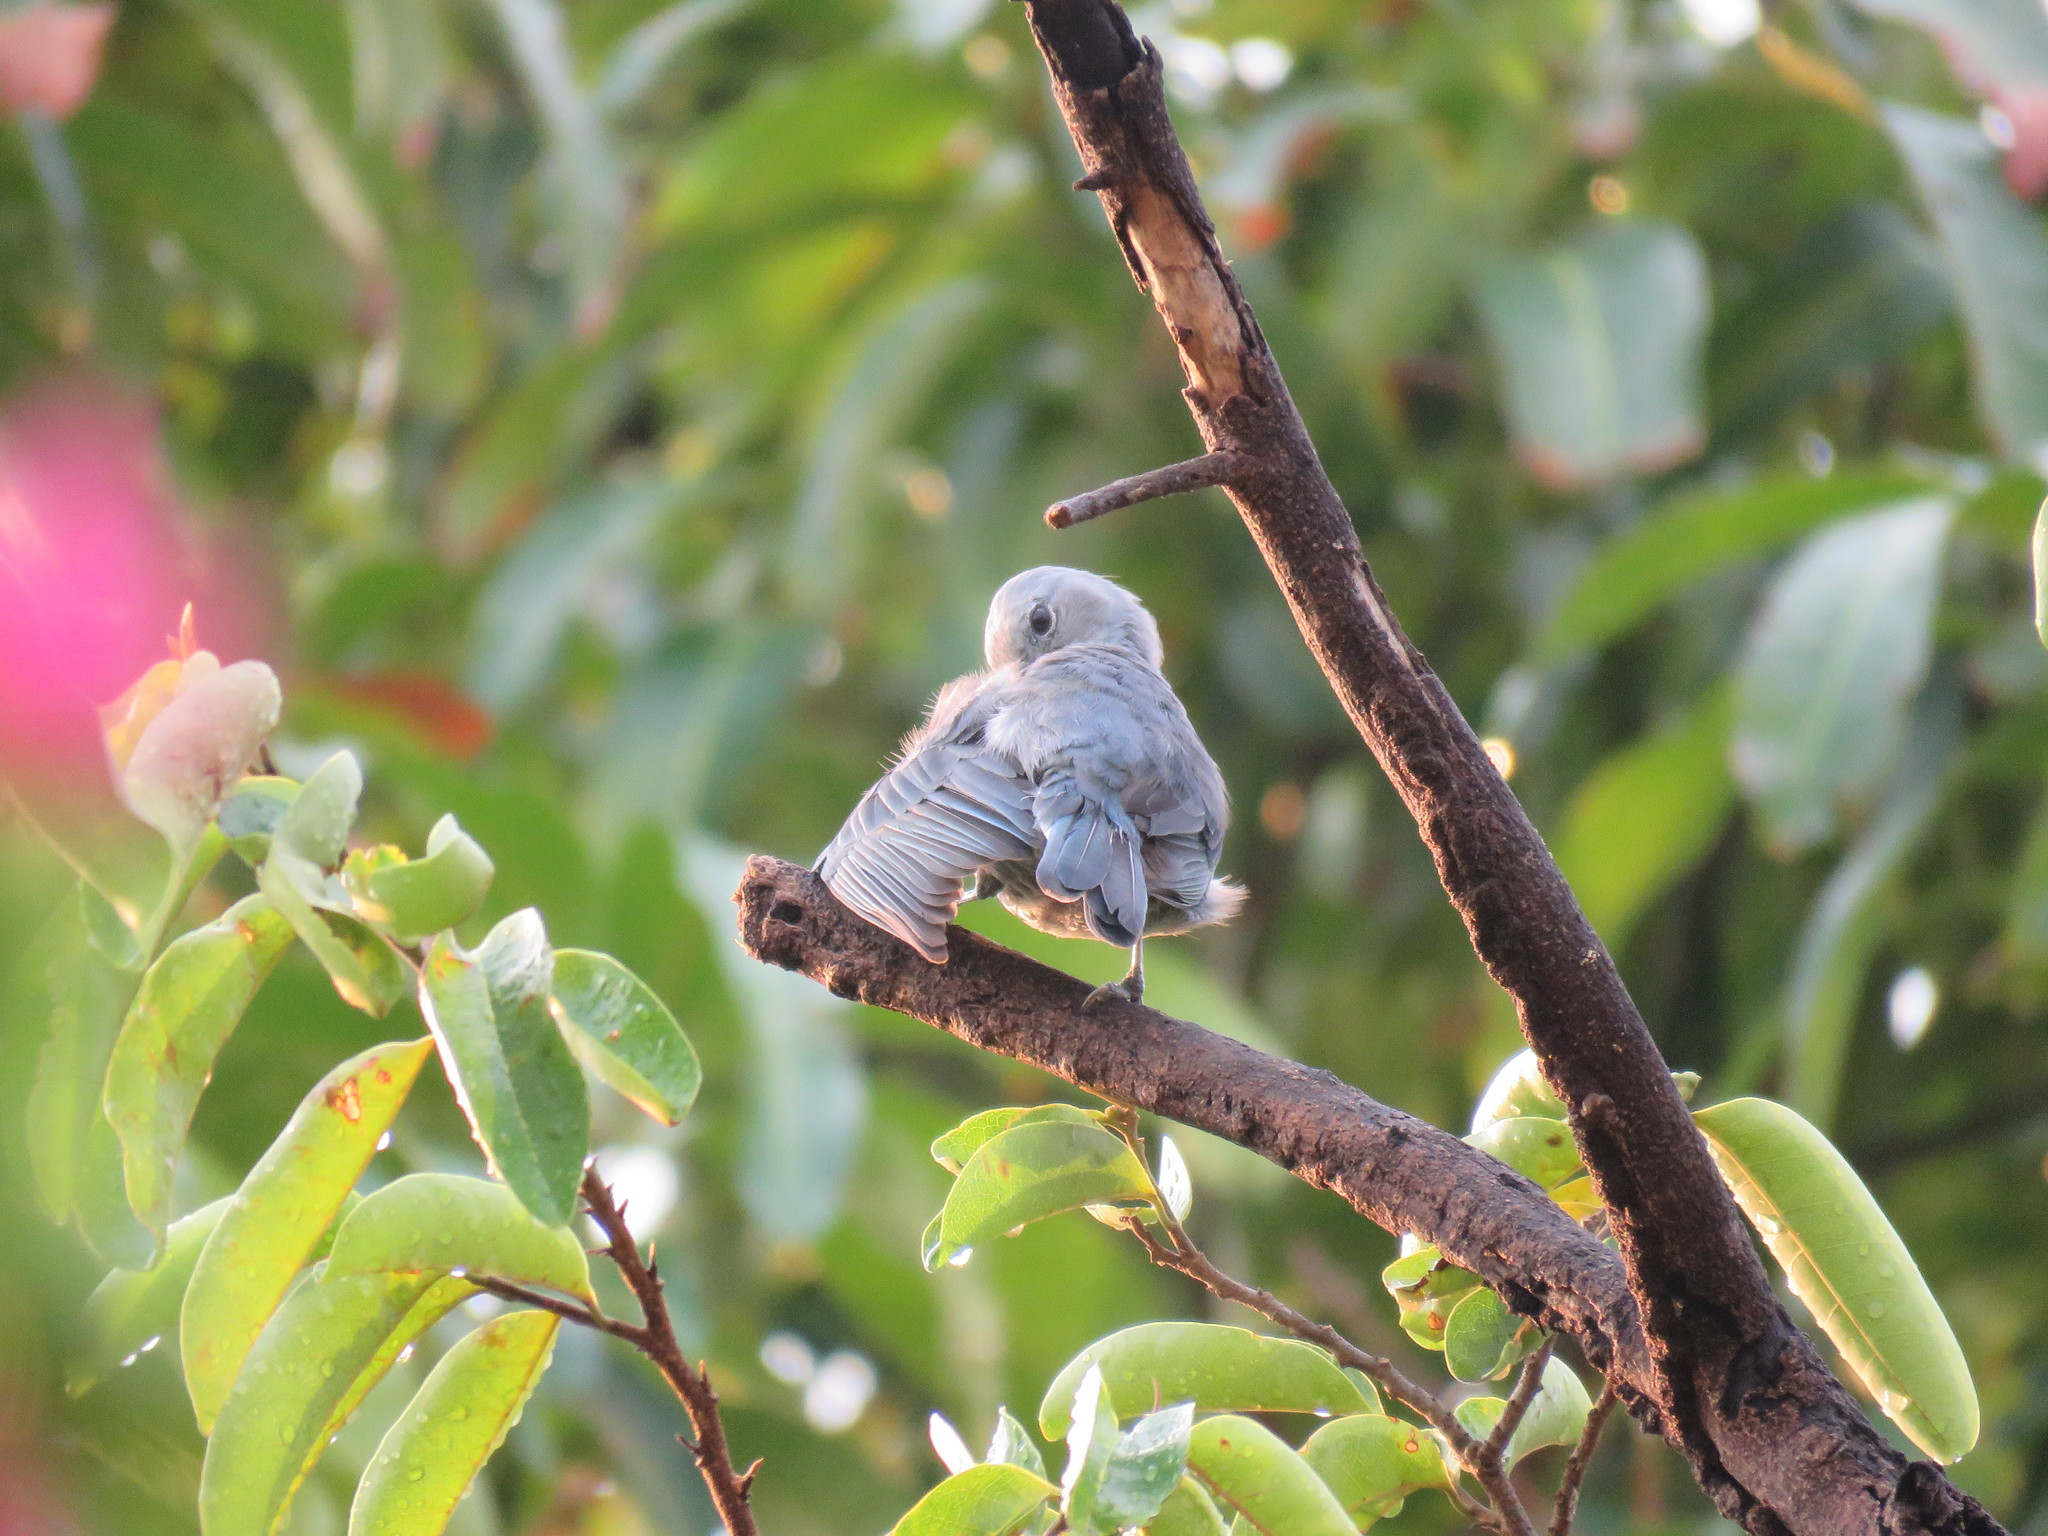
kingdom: Animalia
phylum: Chordata
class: Aves
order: Passeriformes
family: Thraupidae
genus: Thraupis
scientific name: Thraupis episcopus
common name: Blue-grey tanager
